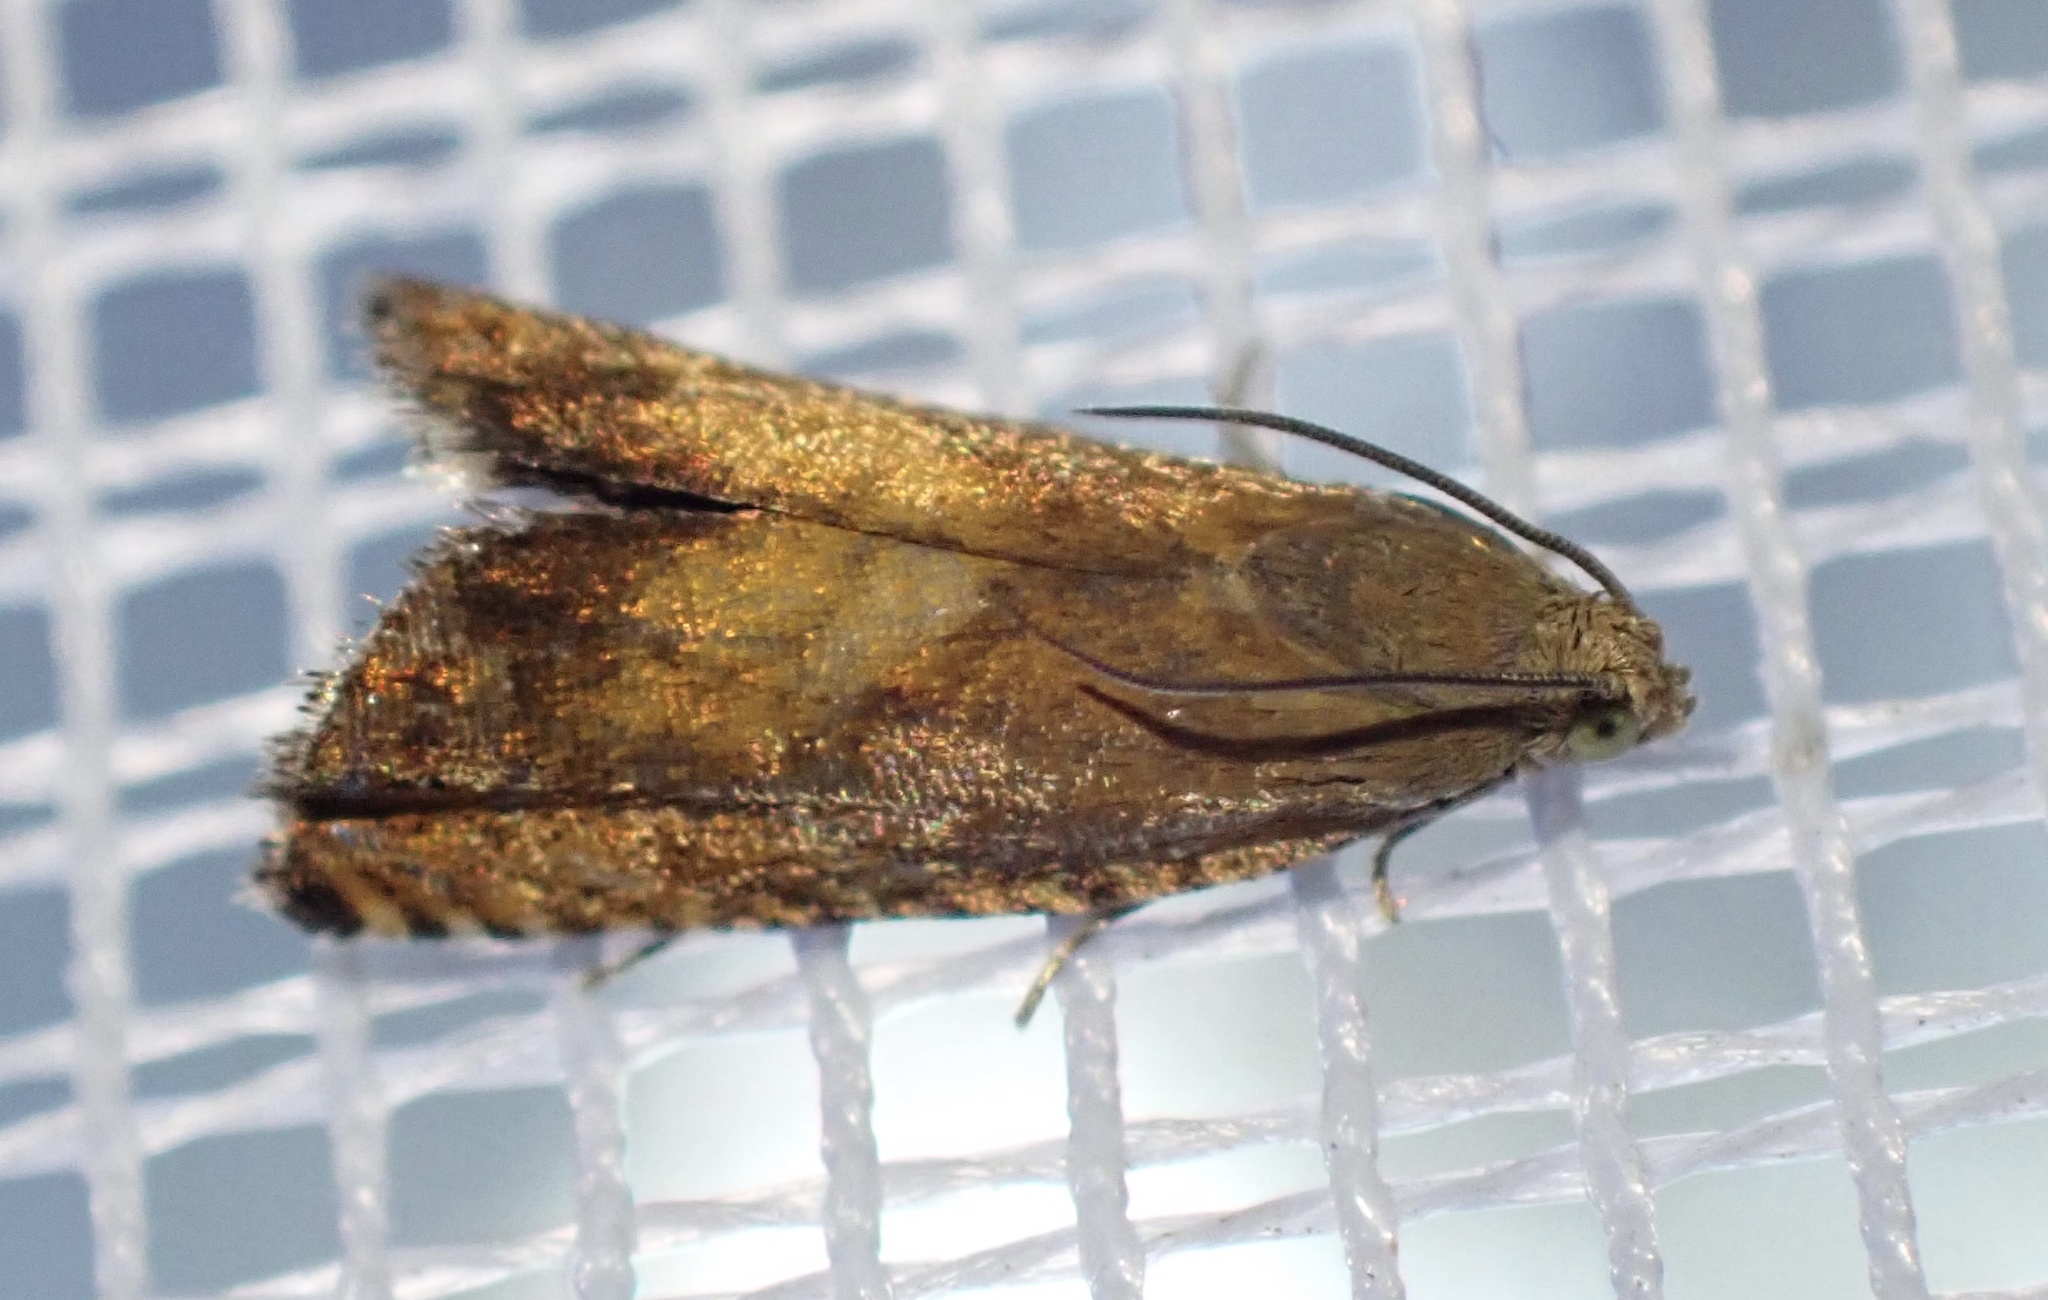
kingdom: Animalia
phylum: Arthropoda
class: Insecta
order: Lepidoptera
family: Tortricidae
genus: Pammene
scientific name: Pammene aurita
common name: Sycamore piercer
